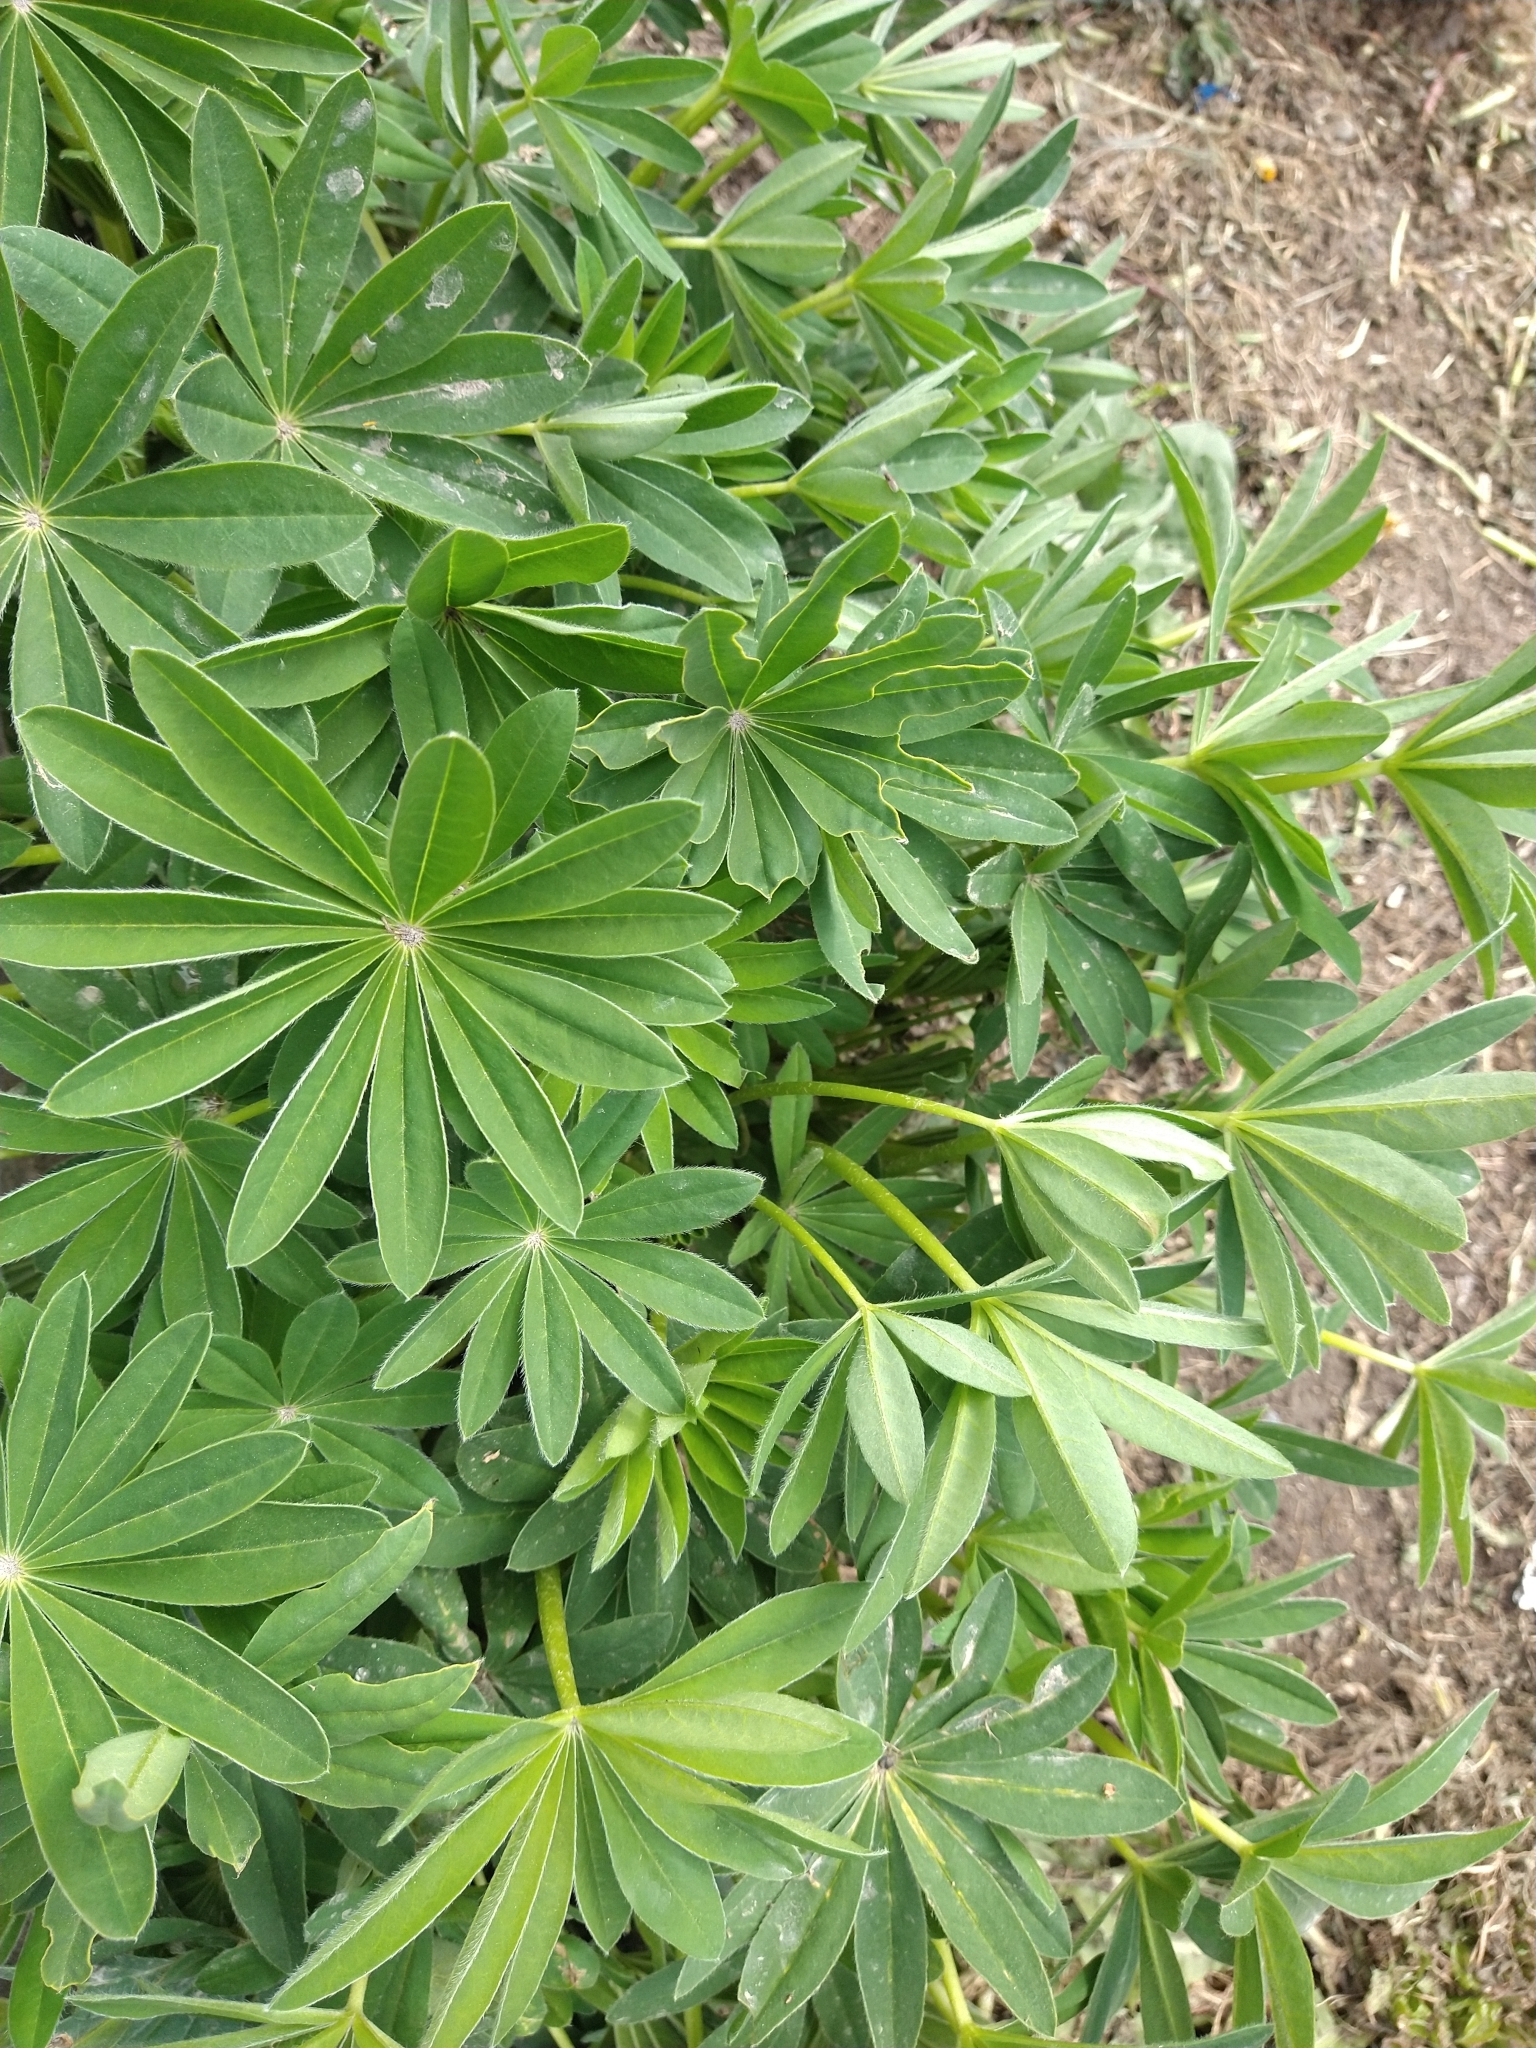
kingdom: Plantae
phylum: Tracheophyta
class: Magnoliopsida
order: Fabales
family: Fabaceae
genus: Lupinus
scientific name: Lupinus polyphyllus
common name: Garden lupin
